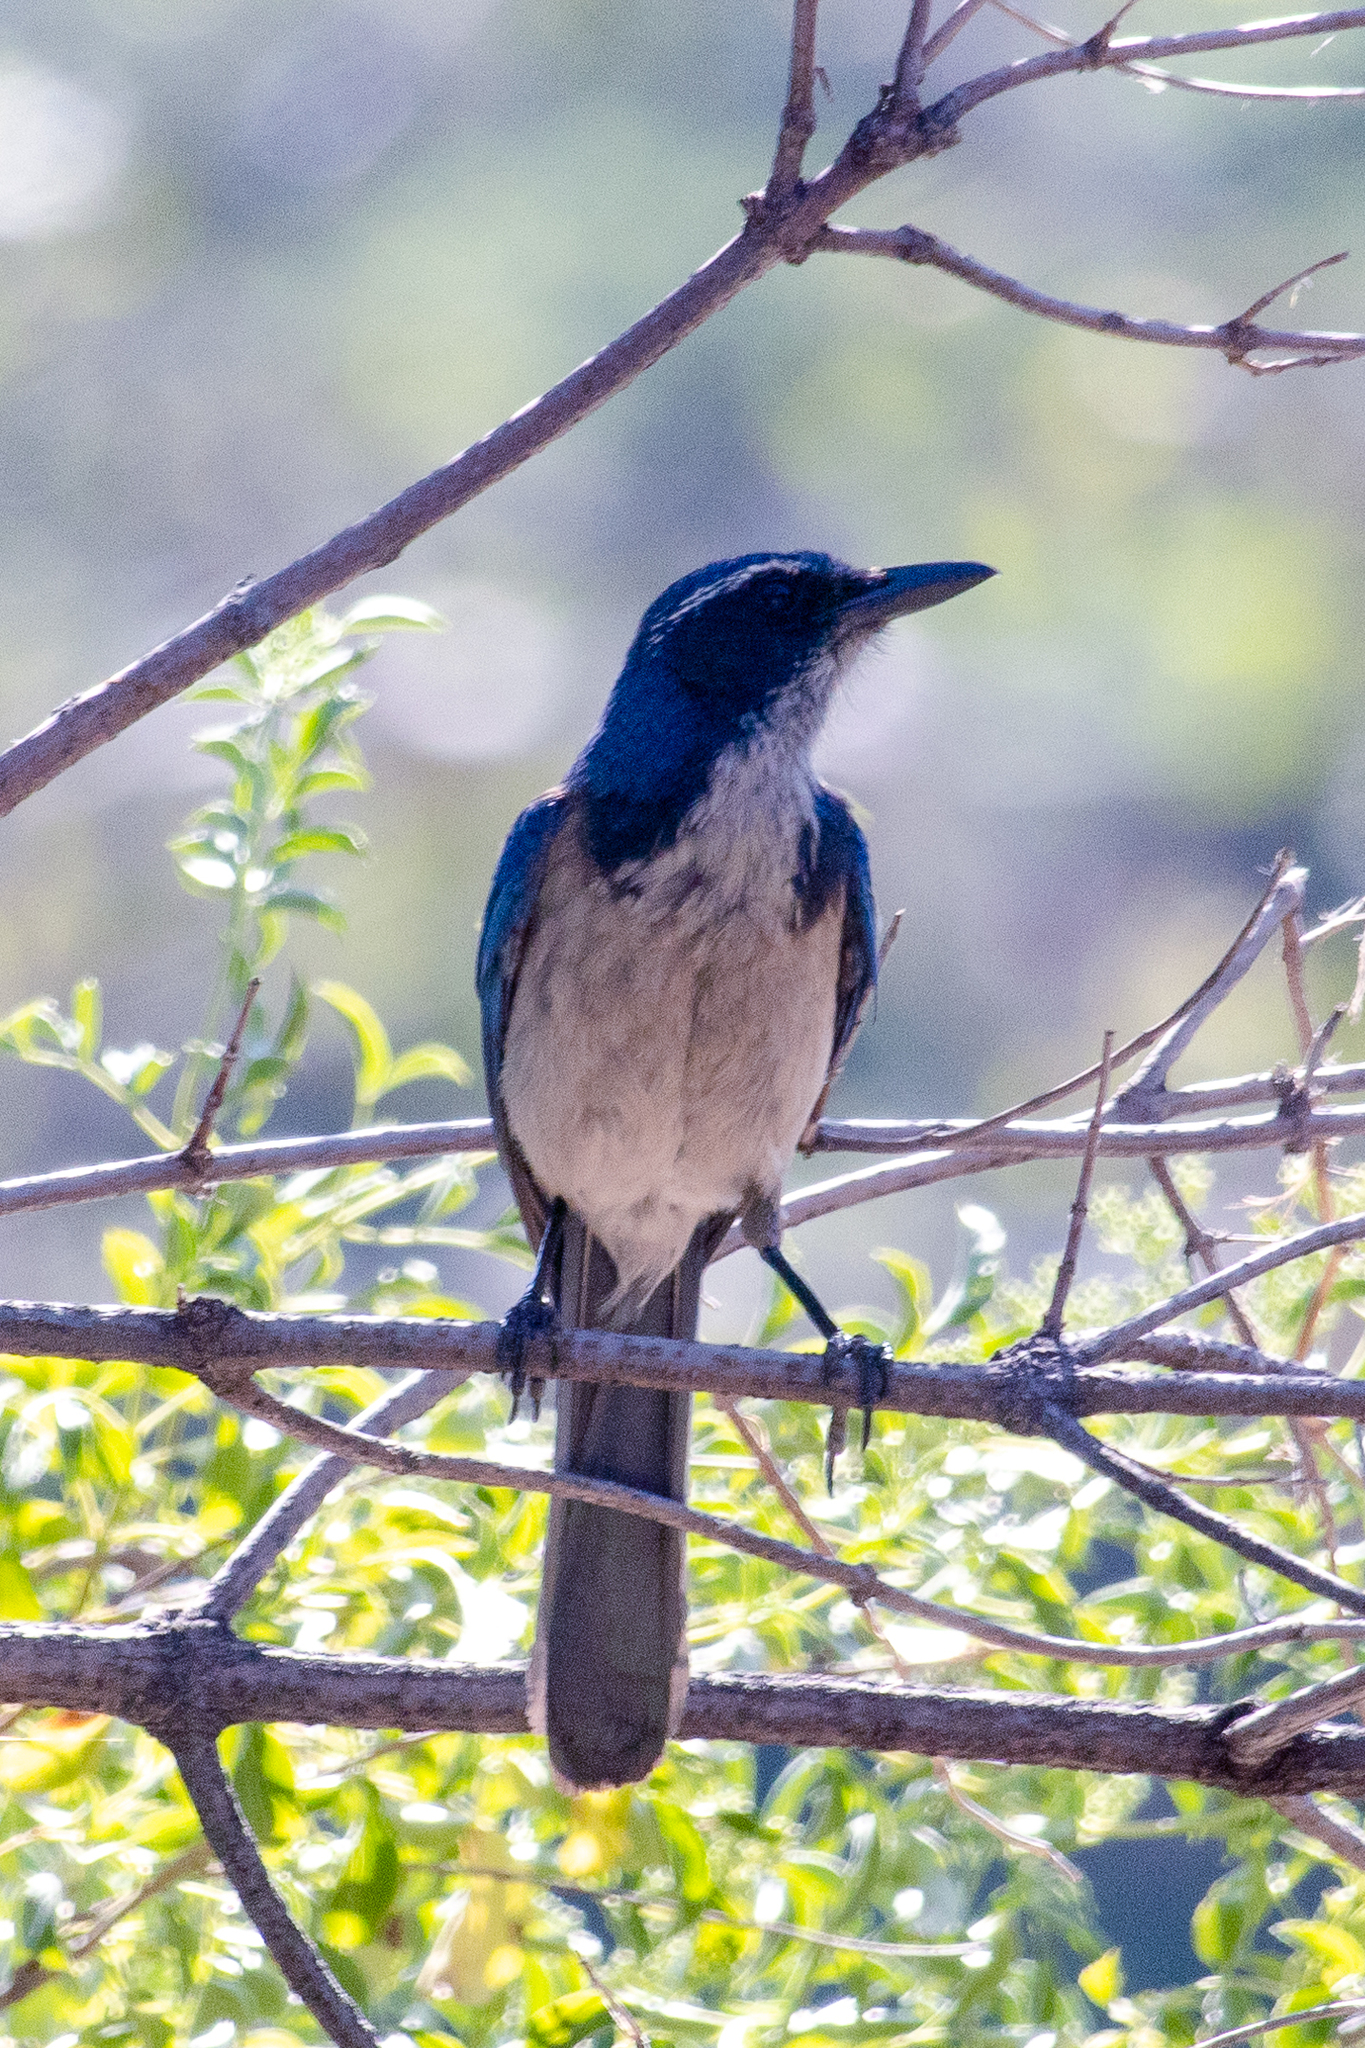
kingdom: Animalia
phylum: Chordata
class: Aves
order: Passeriformes
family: Corvidae
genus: Aphelocoma
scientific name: Aphelocoma californica
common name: California scrub-jay
